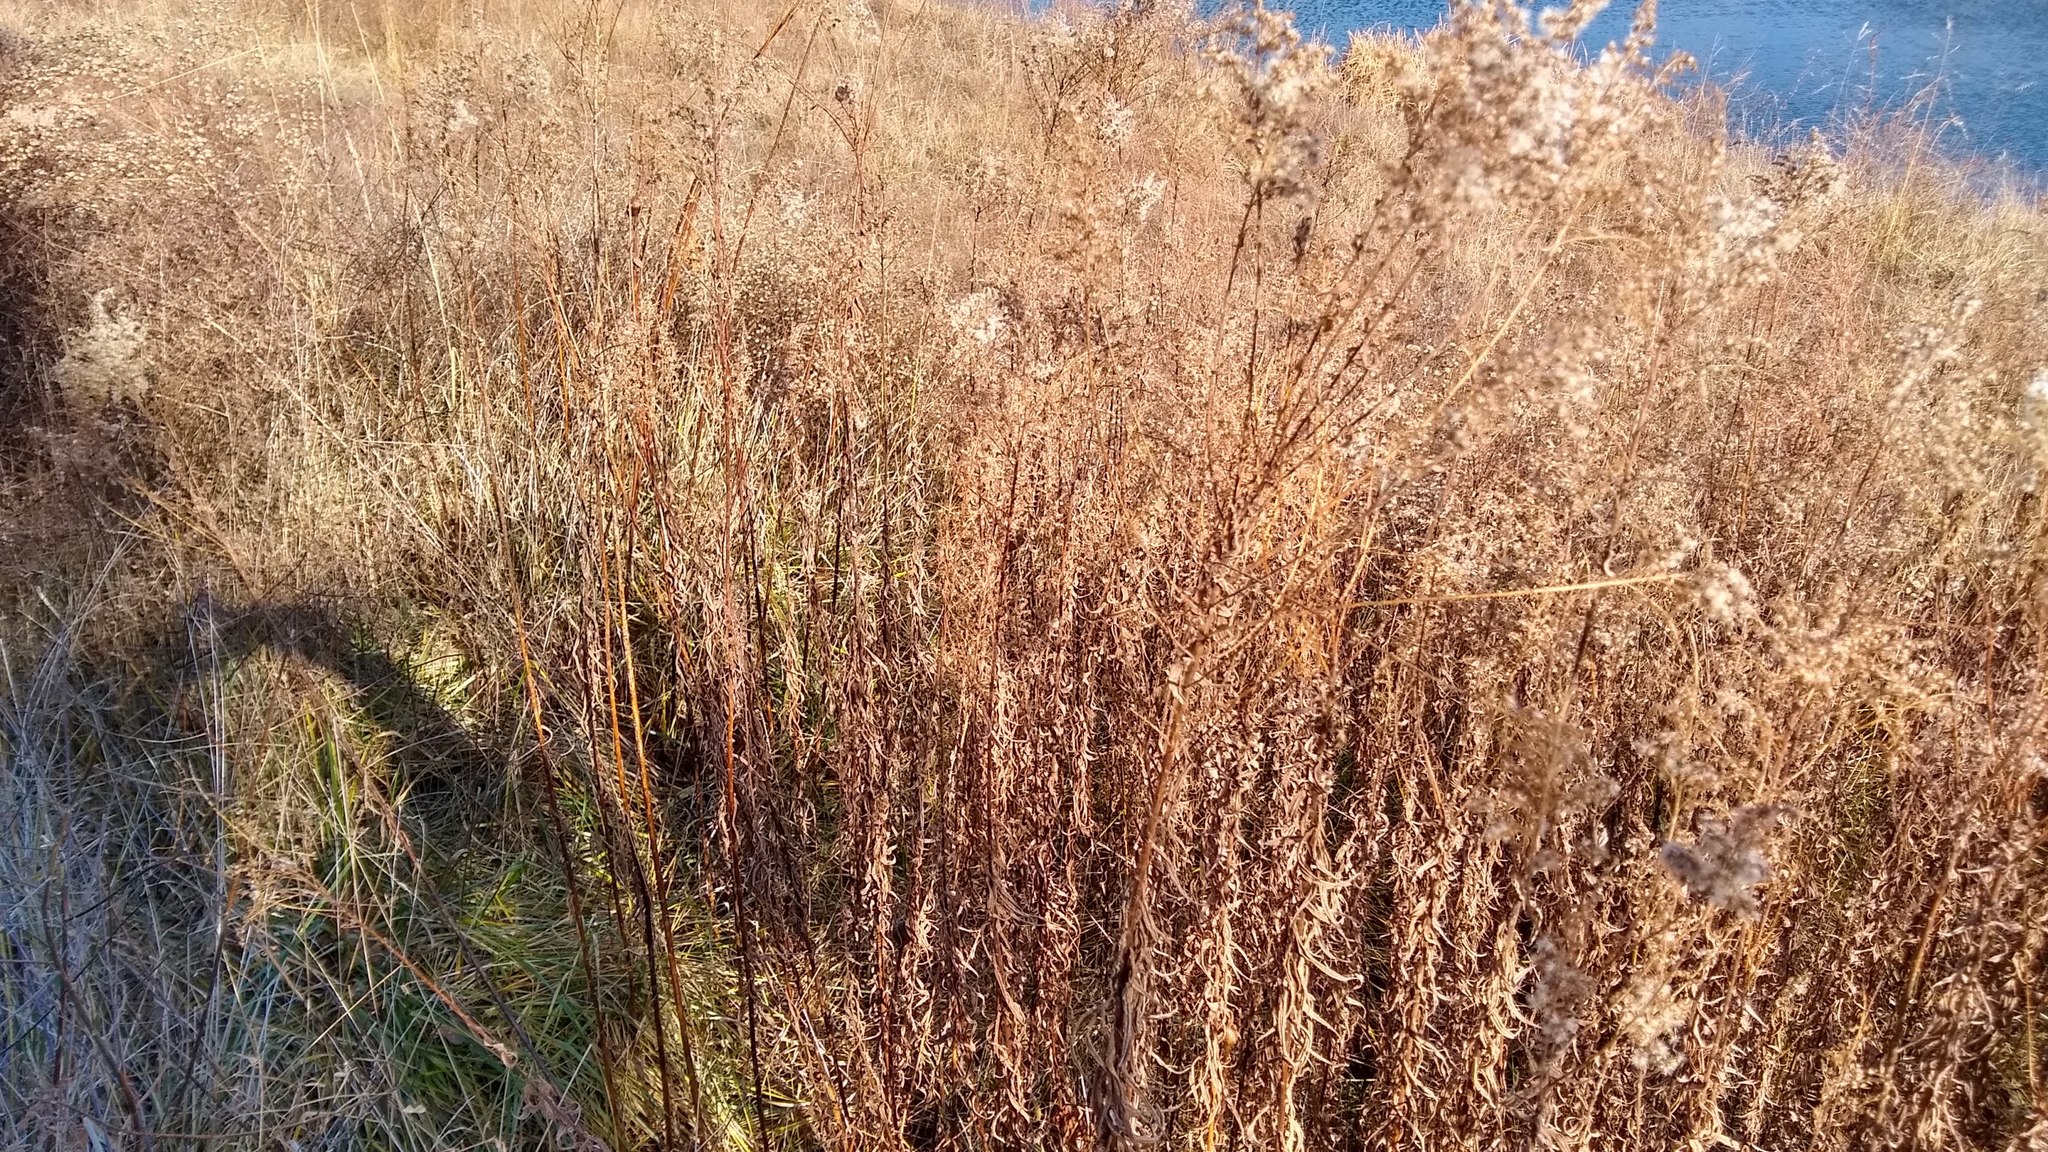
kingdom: Animalia
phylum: Arthropoda
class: Insecta
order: Diptera
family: Tephritidae
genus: Eurosta
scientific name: Eurosta solidaginis
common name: Goldenrod gall fly
